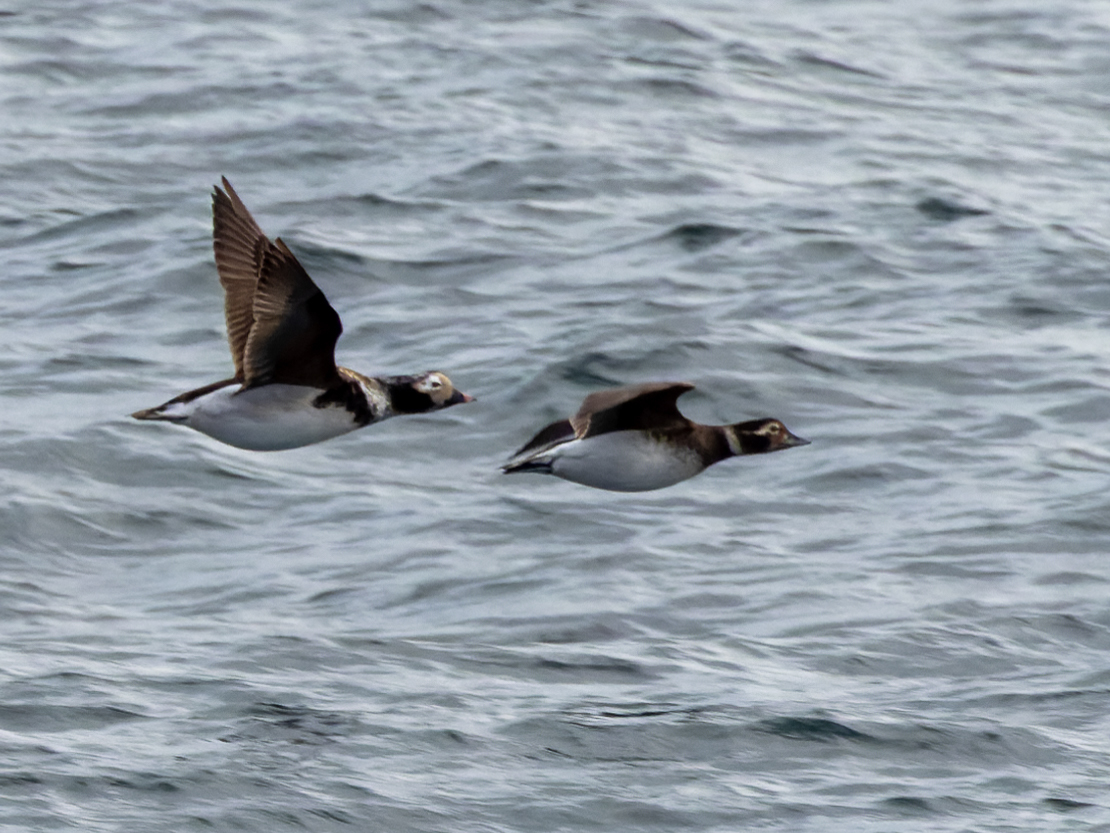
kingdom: Animalia
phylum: Chordata
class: Aves
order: Anseriformes
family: Anatidae
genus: Clangula
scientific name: Clangula hyemalis
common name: Long-tailed duck
